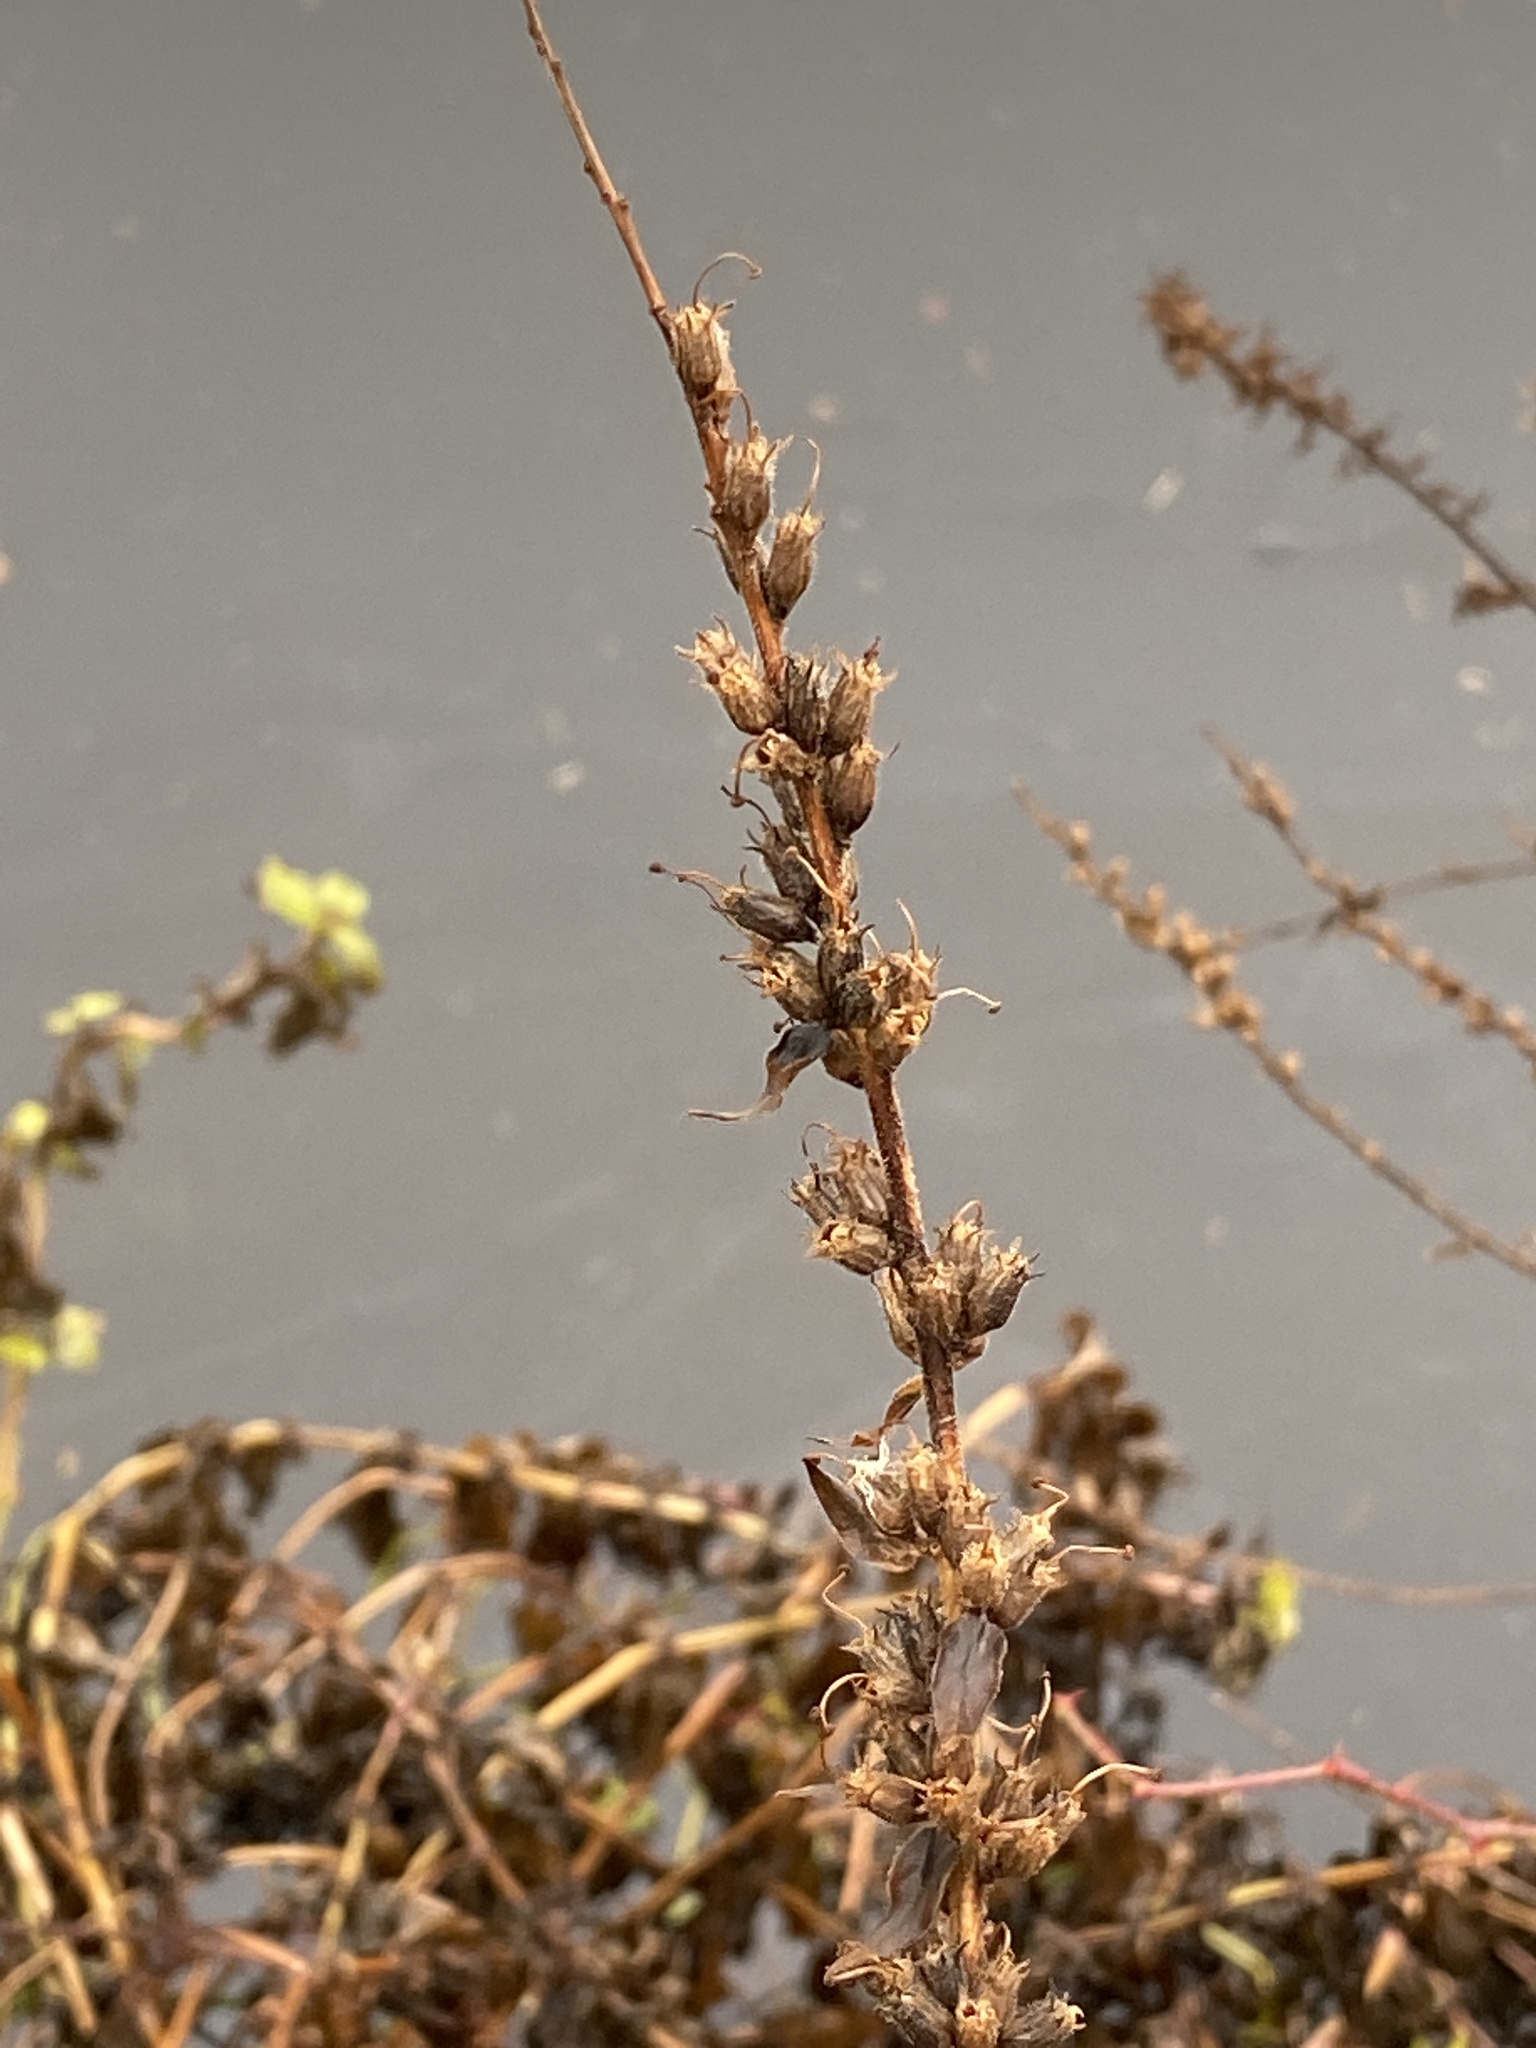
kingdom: Plantae
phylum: Tracheophyta
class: Magnoliopsida
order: Myrtales
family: Lythraceae
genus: Lythrum
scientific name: Lythrum salicaria
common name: Purple loosestrife
